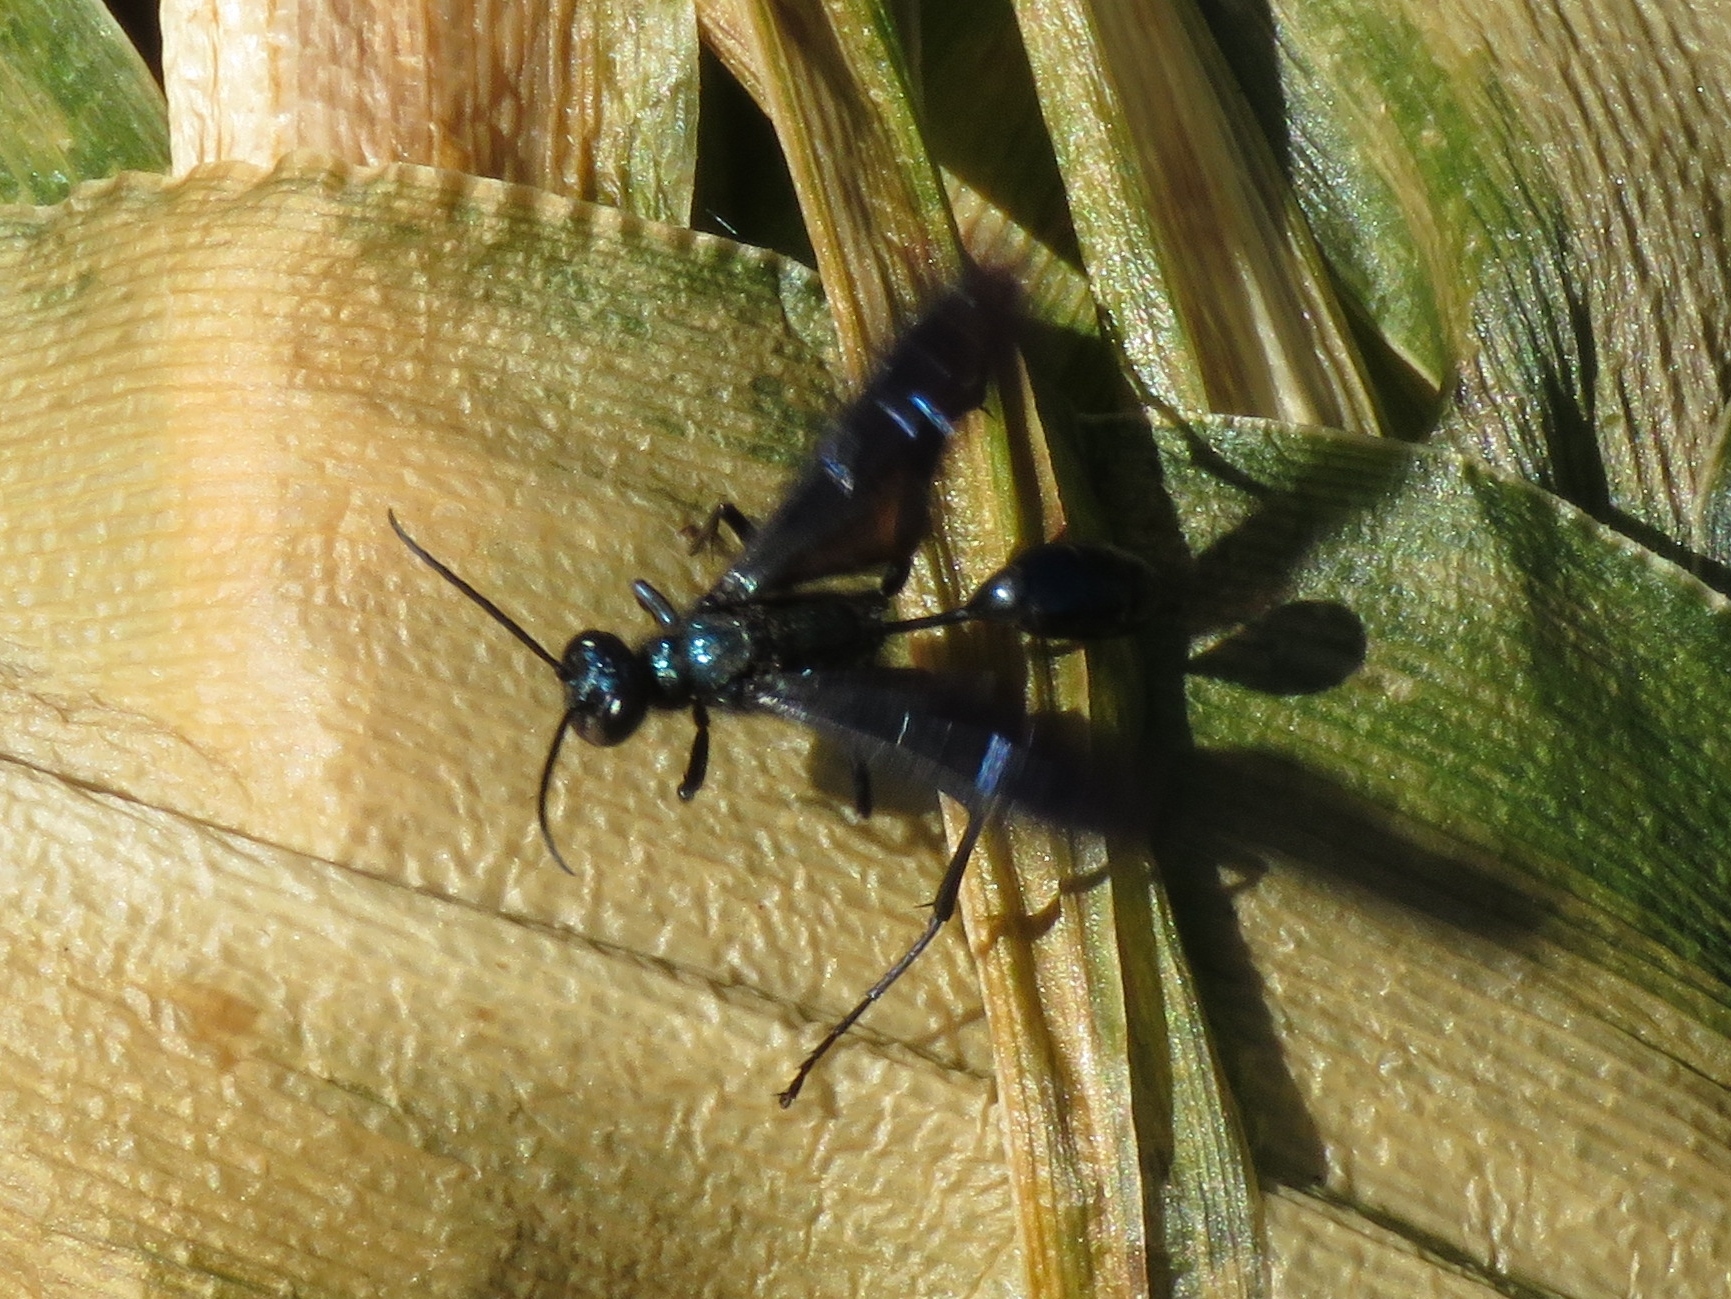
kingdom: Animalia
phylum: Arthropoda
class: Insecta
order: Hymenoptera
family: Sphecidae
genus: Chalybion
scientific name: Chalybion
